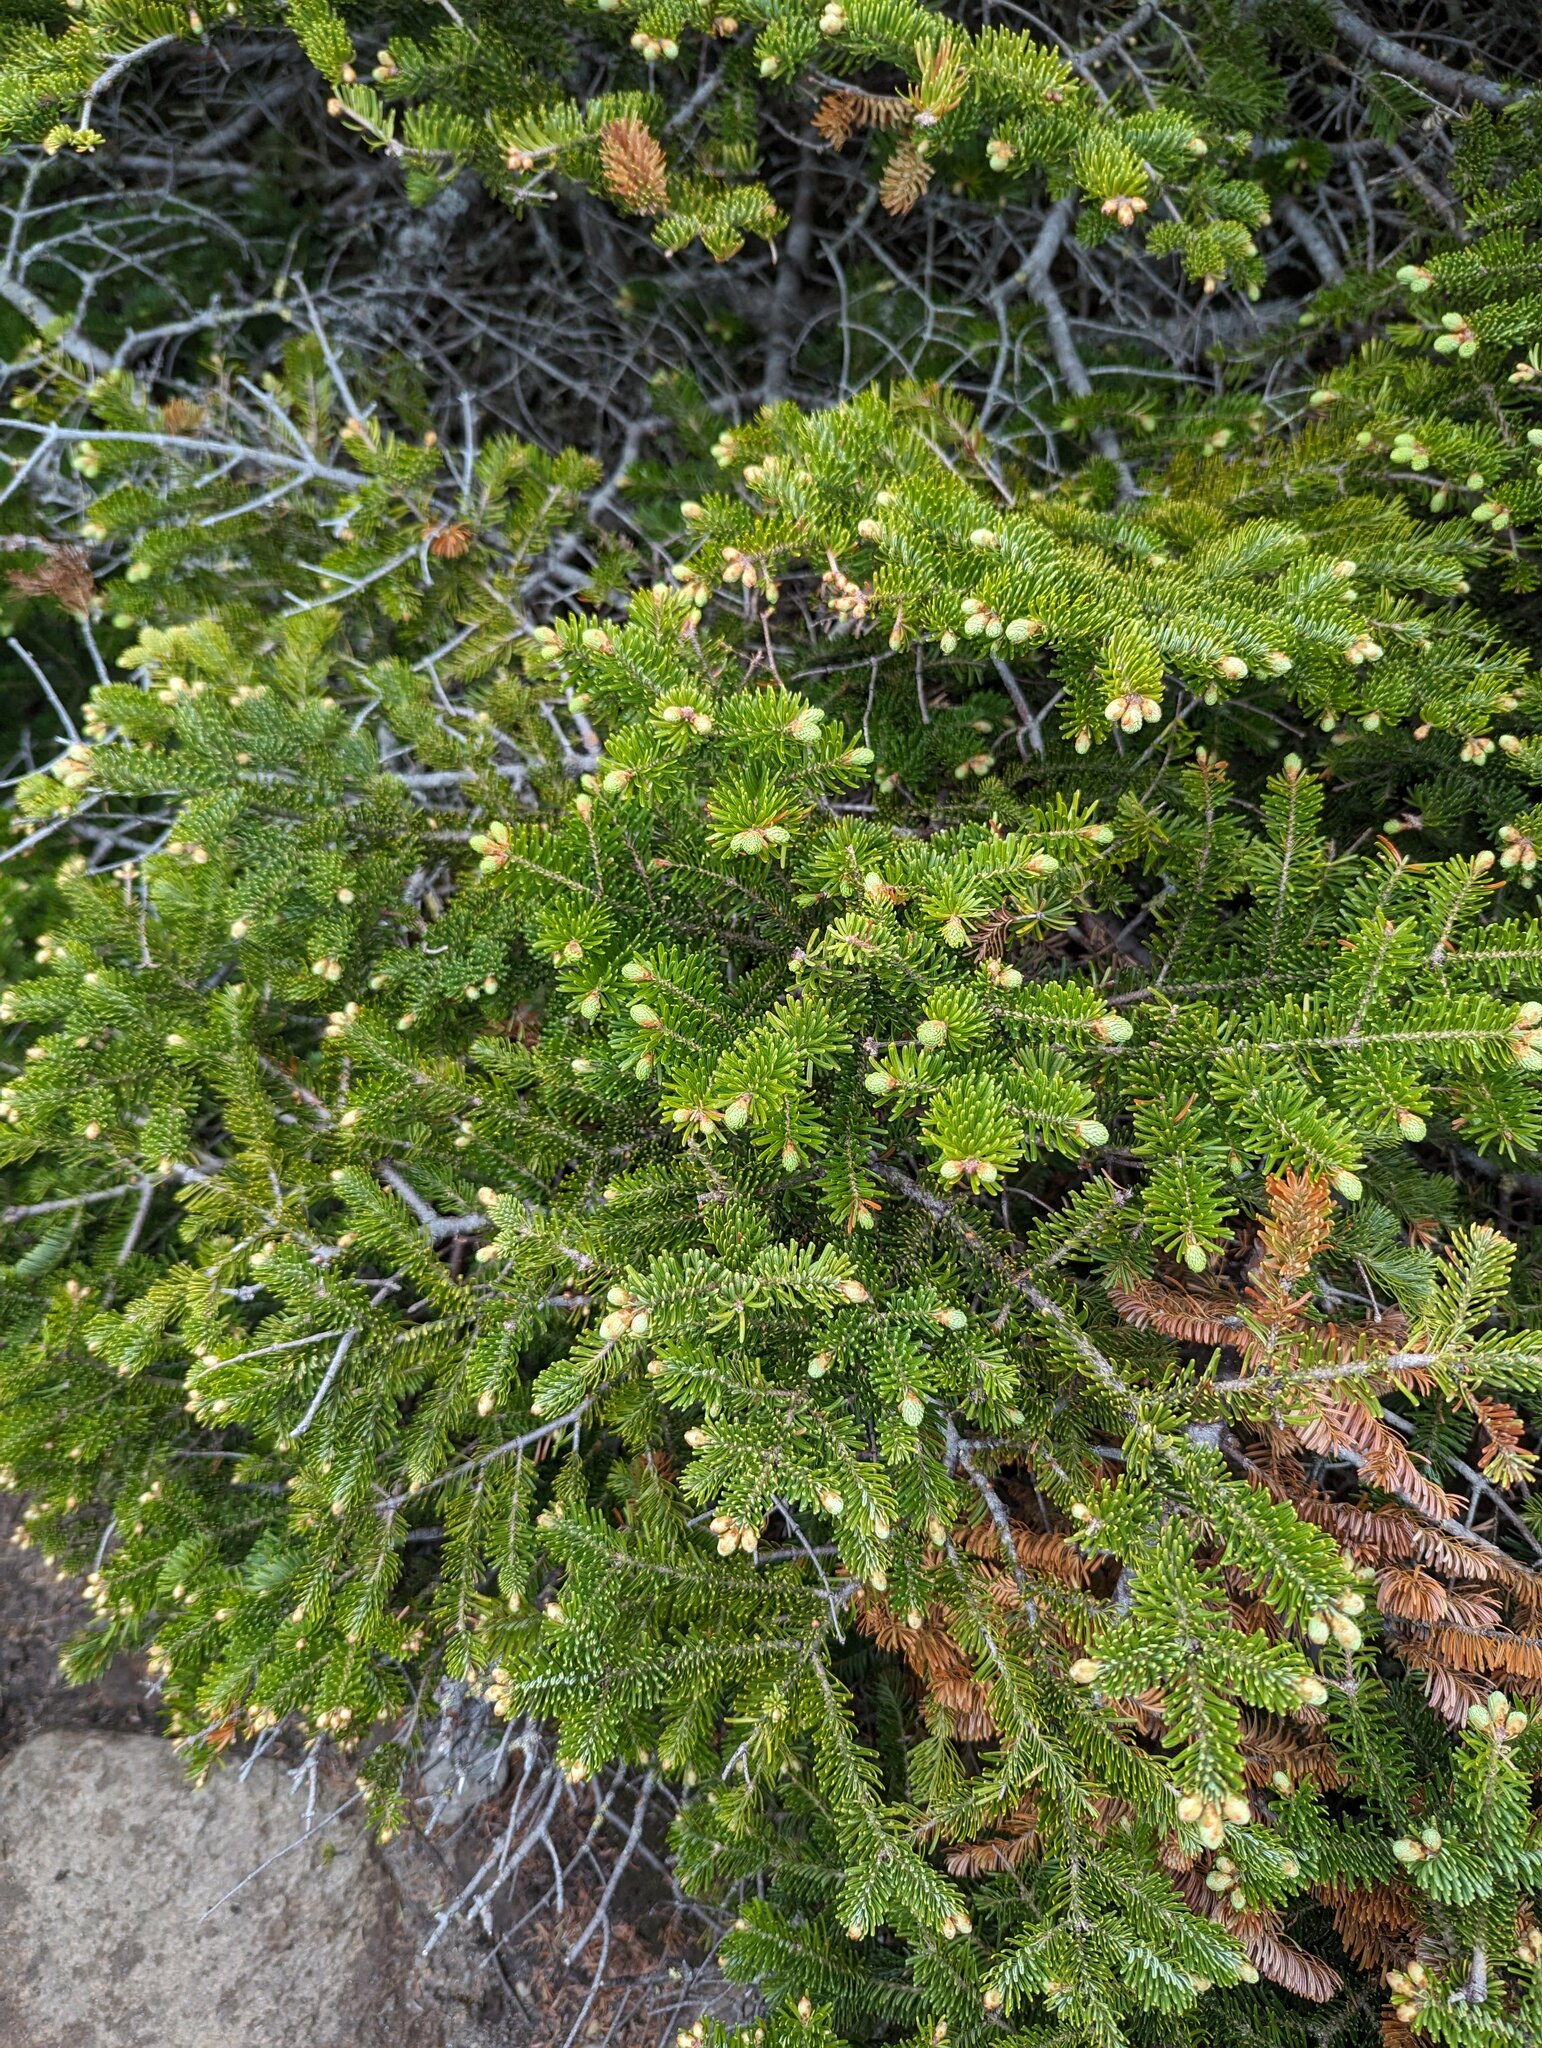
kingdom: Plantae
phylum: Tracheophyta
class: Pinopsida
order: Pinales
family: Pinaceae
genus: Abies
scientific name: Abies balsamea
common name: Balsam fir
